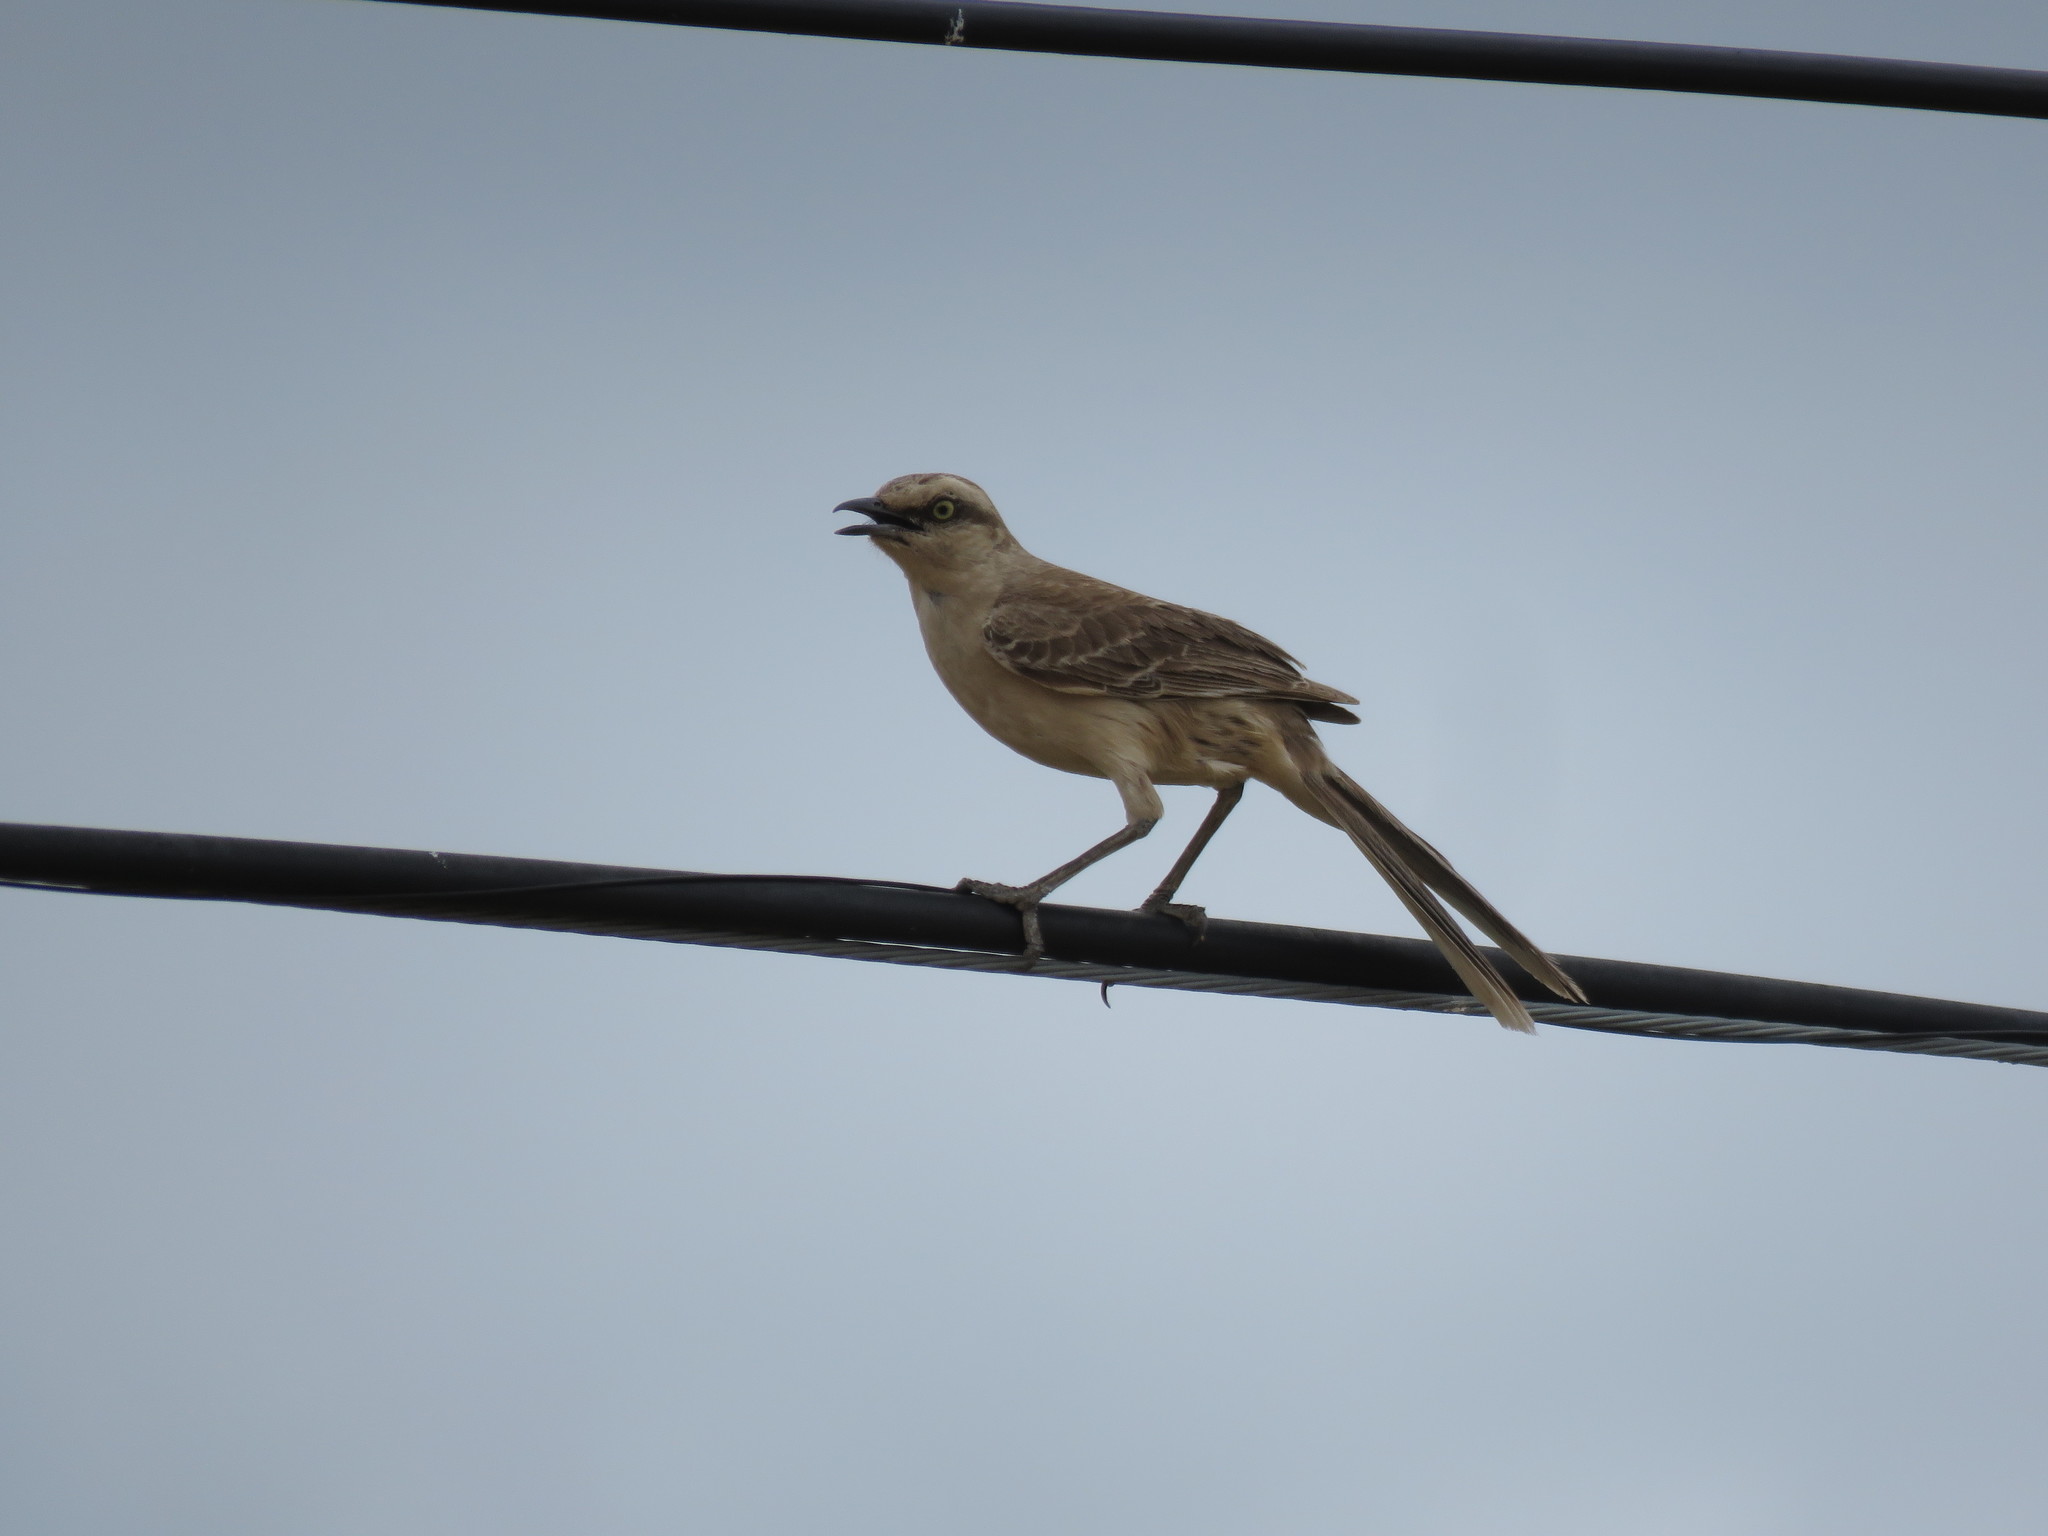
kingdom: Animalia
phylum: Chordata
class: Aves
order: Passeriformes
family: Mimidae
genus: Mimus
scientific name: Mimus saturninus
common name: Chalk-browed mockingbird
